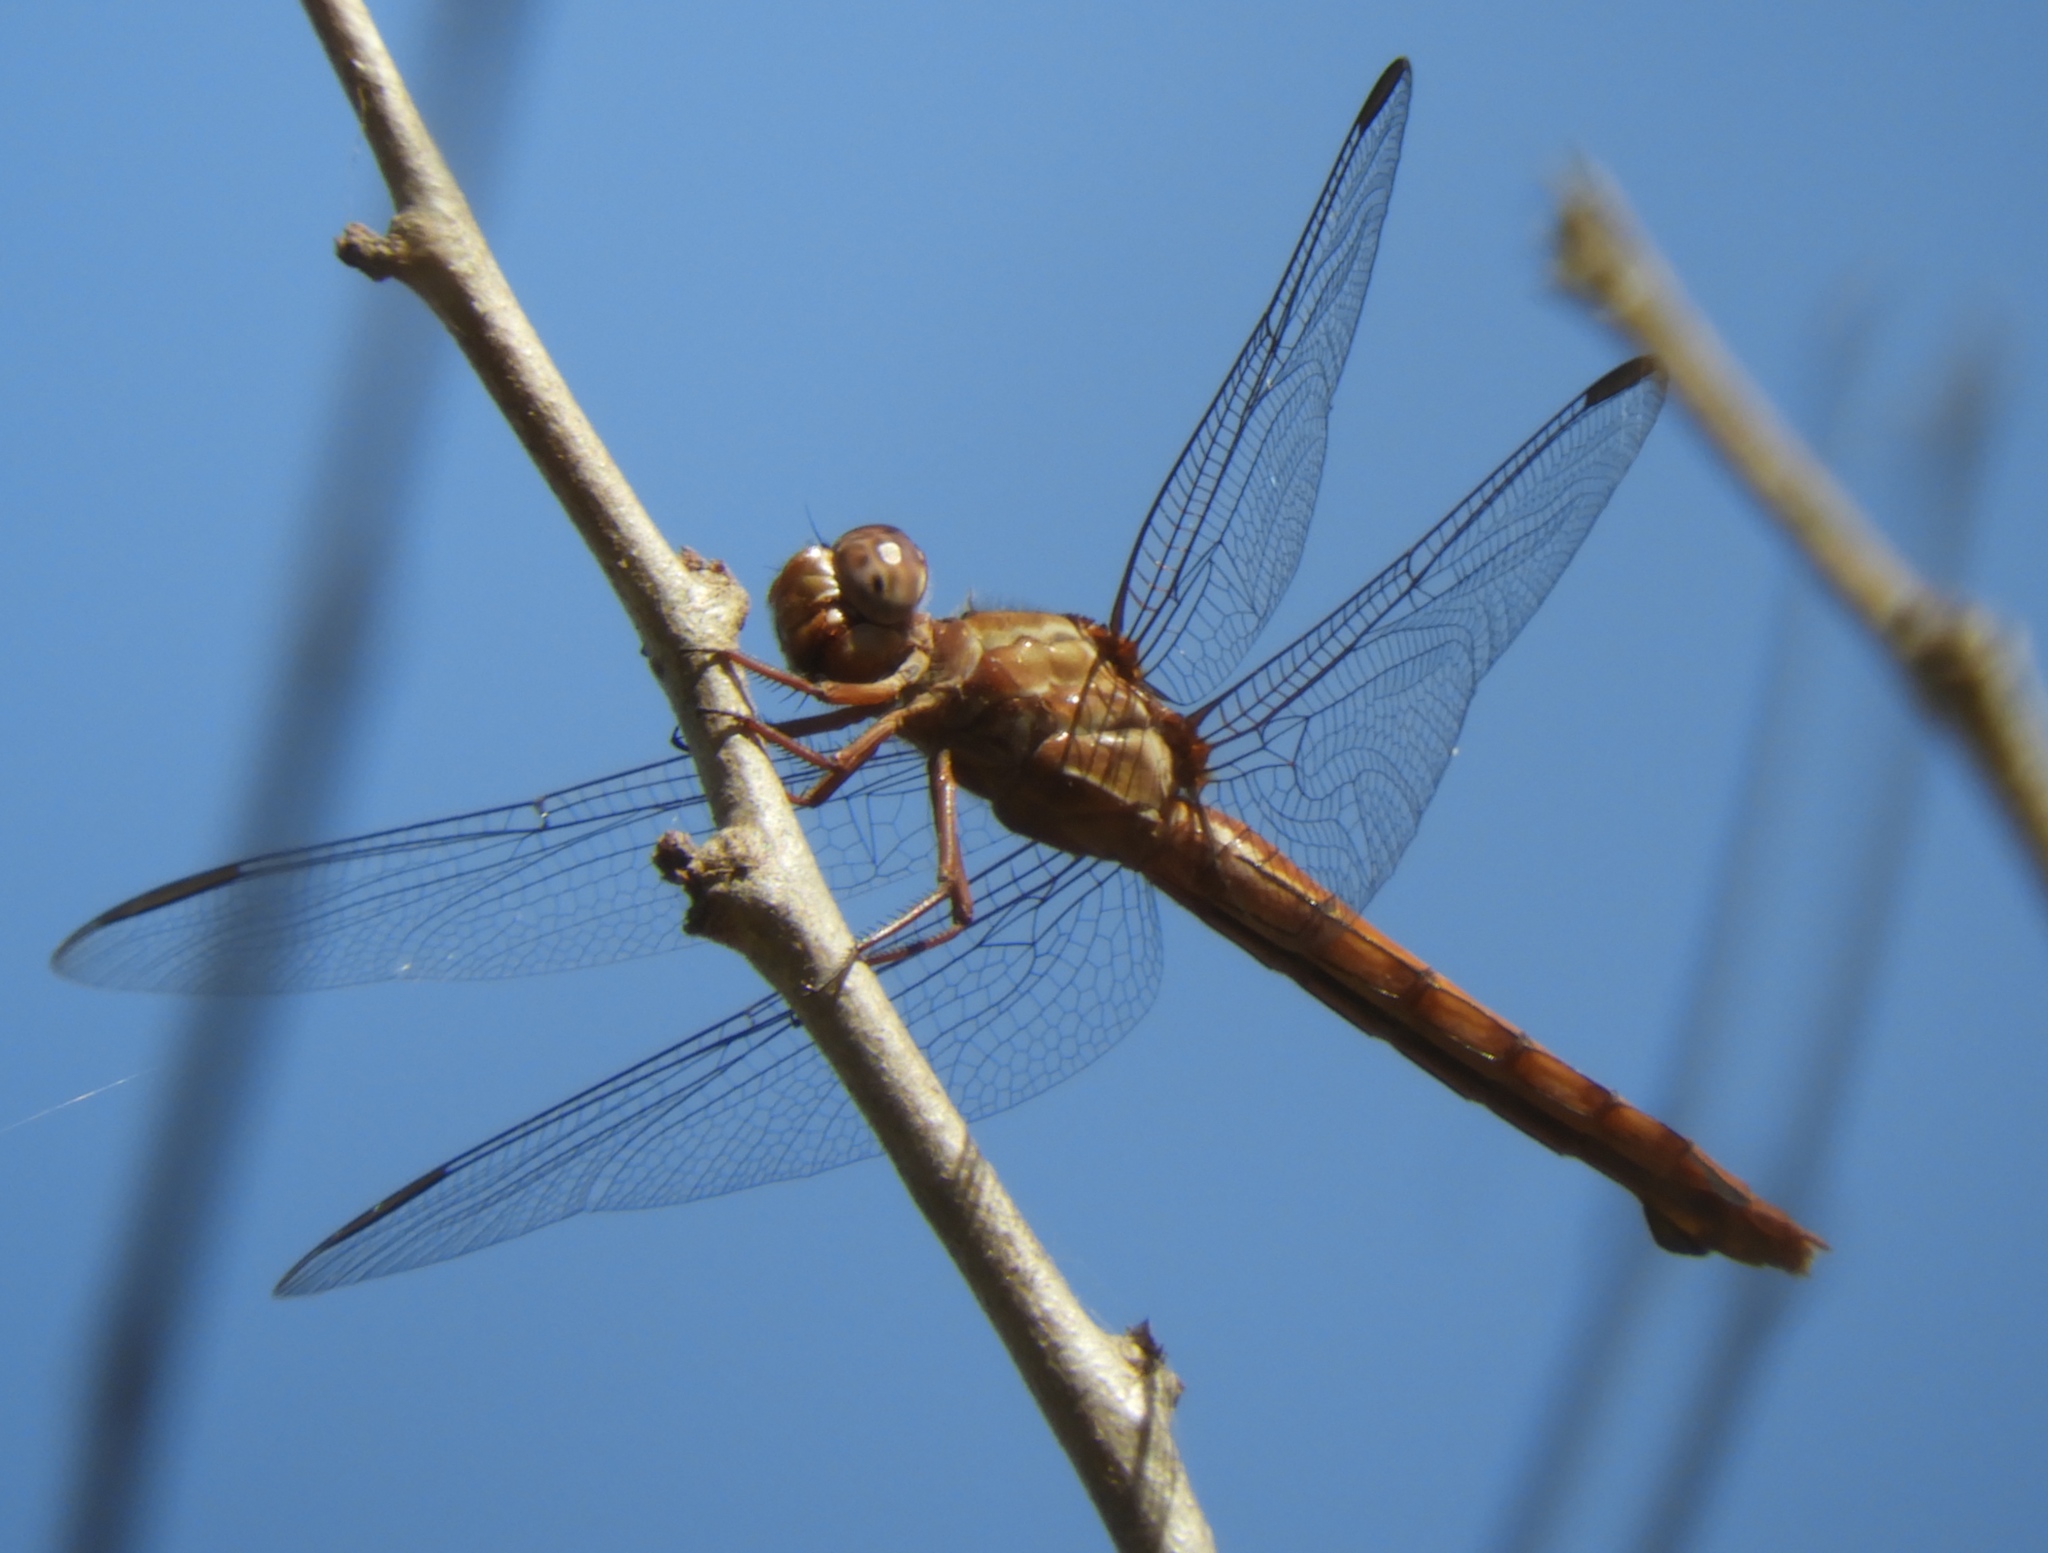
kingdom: Animalia
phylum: Arthropoda
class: Insecta
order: Odonata
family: Libellulidae
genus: Orthemis
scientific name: Orthemis discolor
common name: Carmine skimmer
